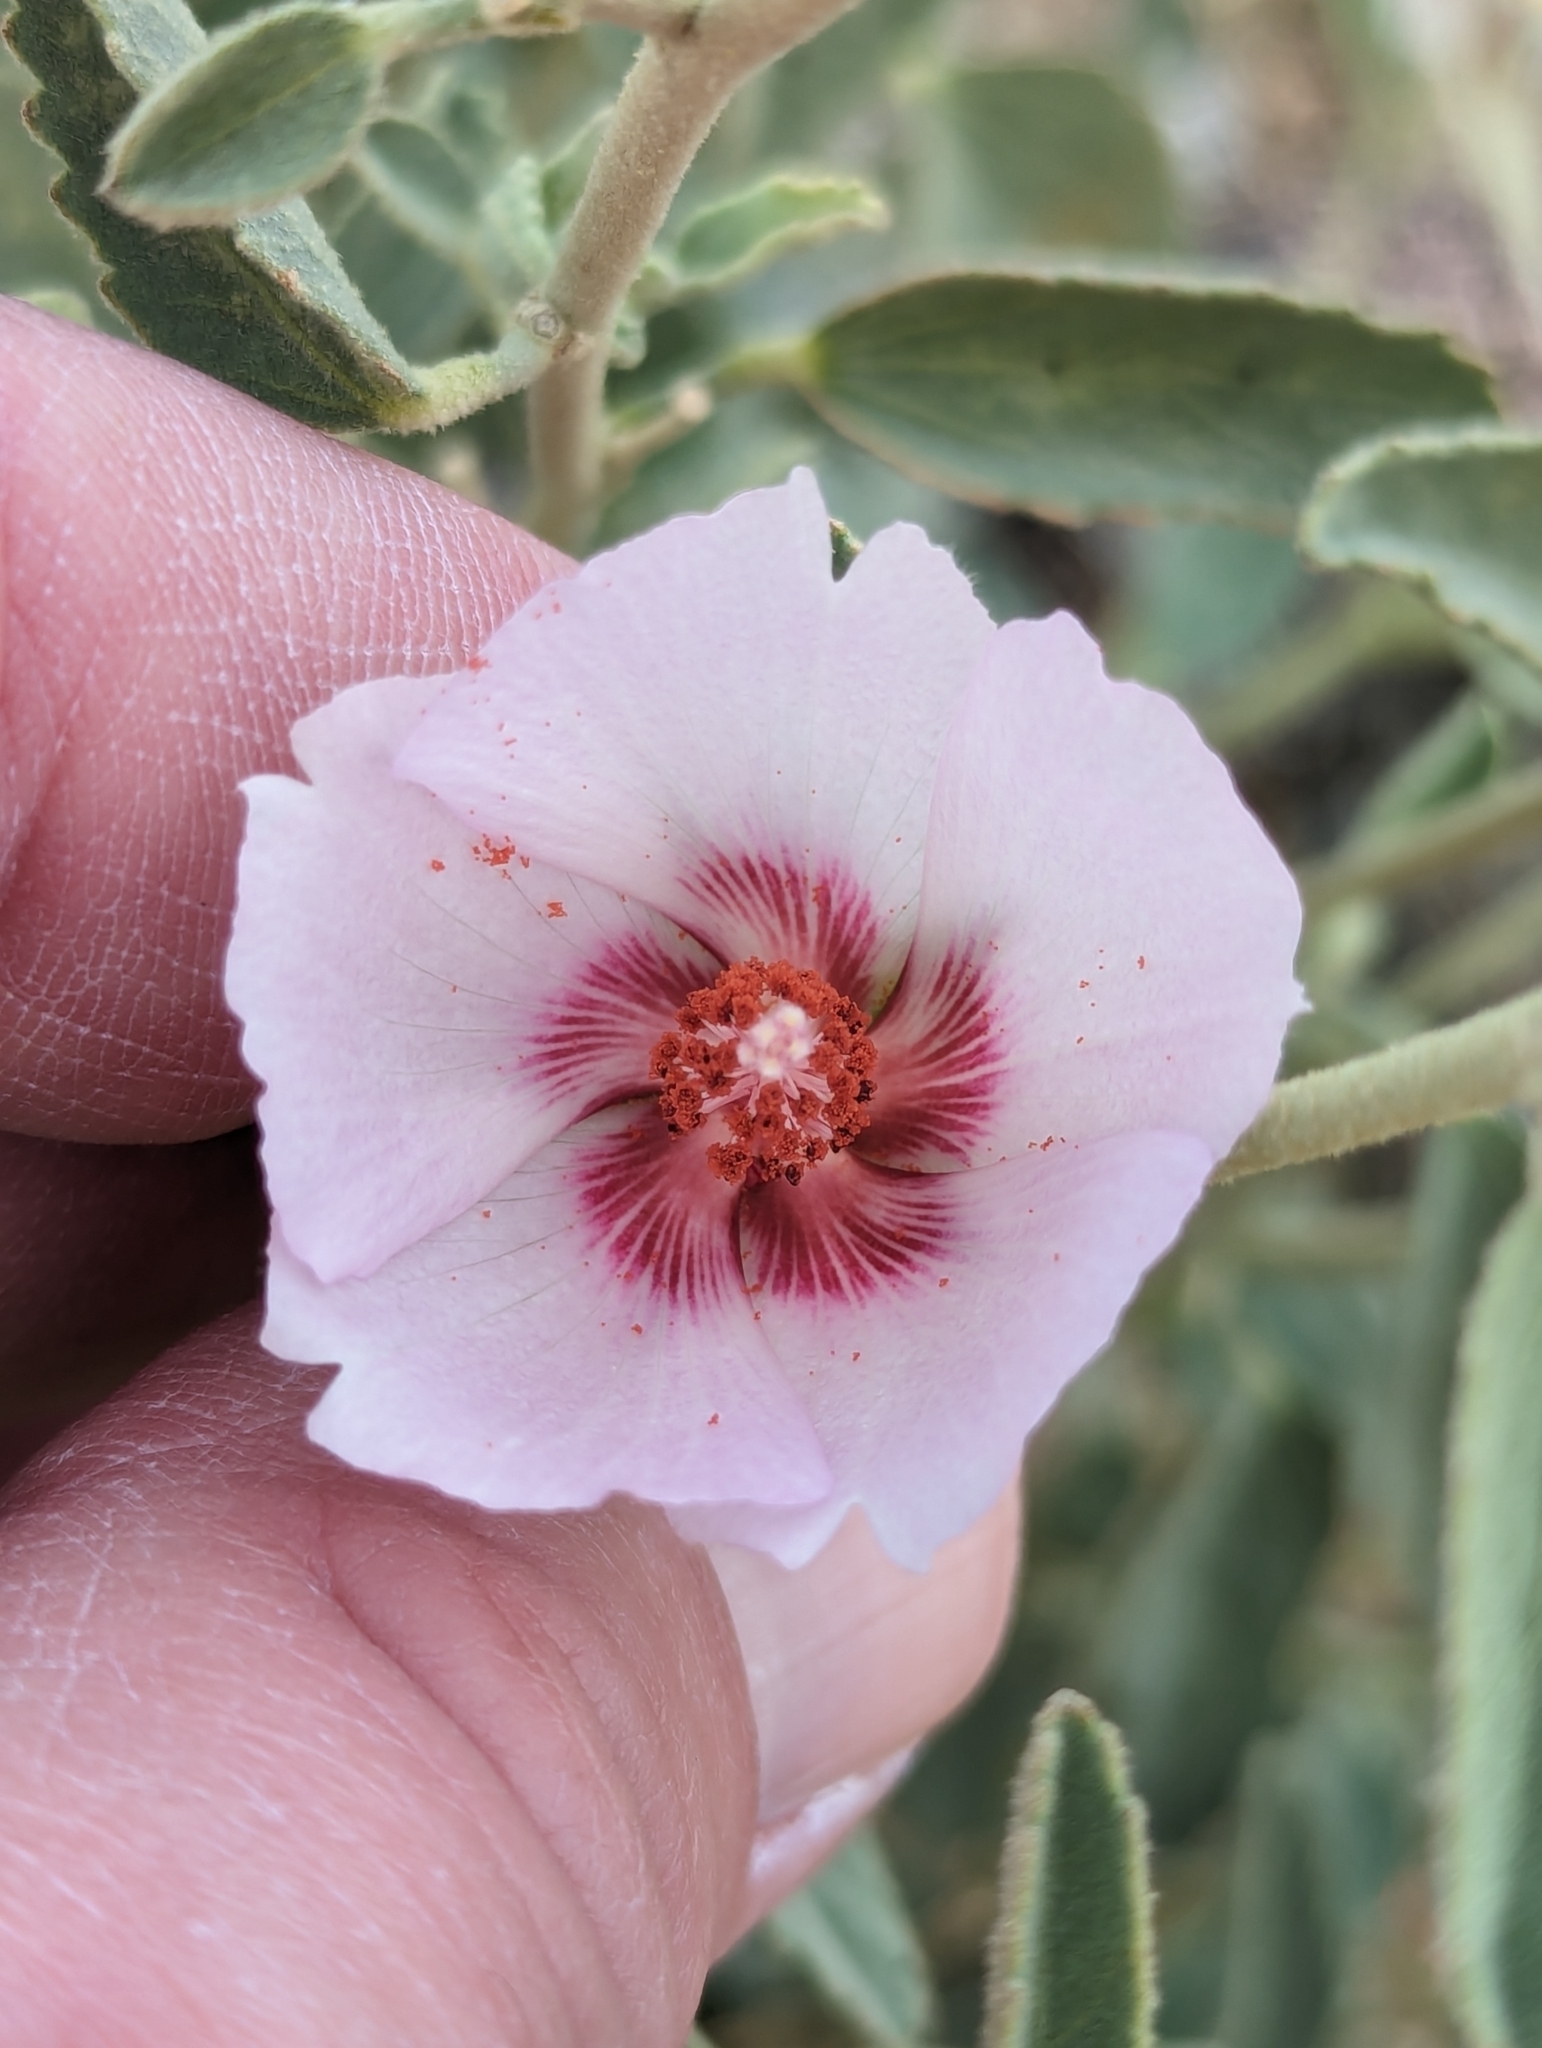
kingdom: Plantae
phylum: Tracheophyta
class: Magnoliopsida
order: Malvales
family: Malvaceae
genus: Hibiscus
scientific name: Hibiscus denudatus
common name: Paleface
